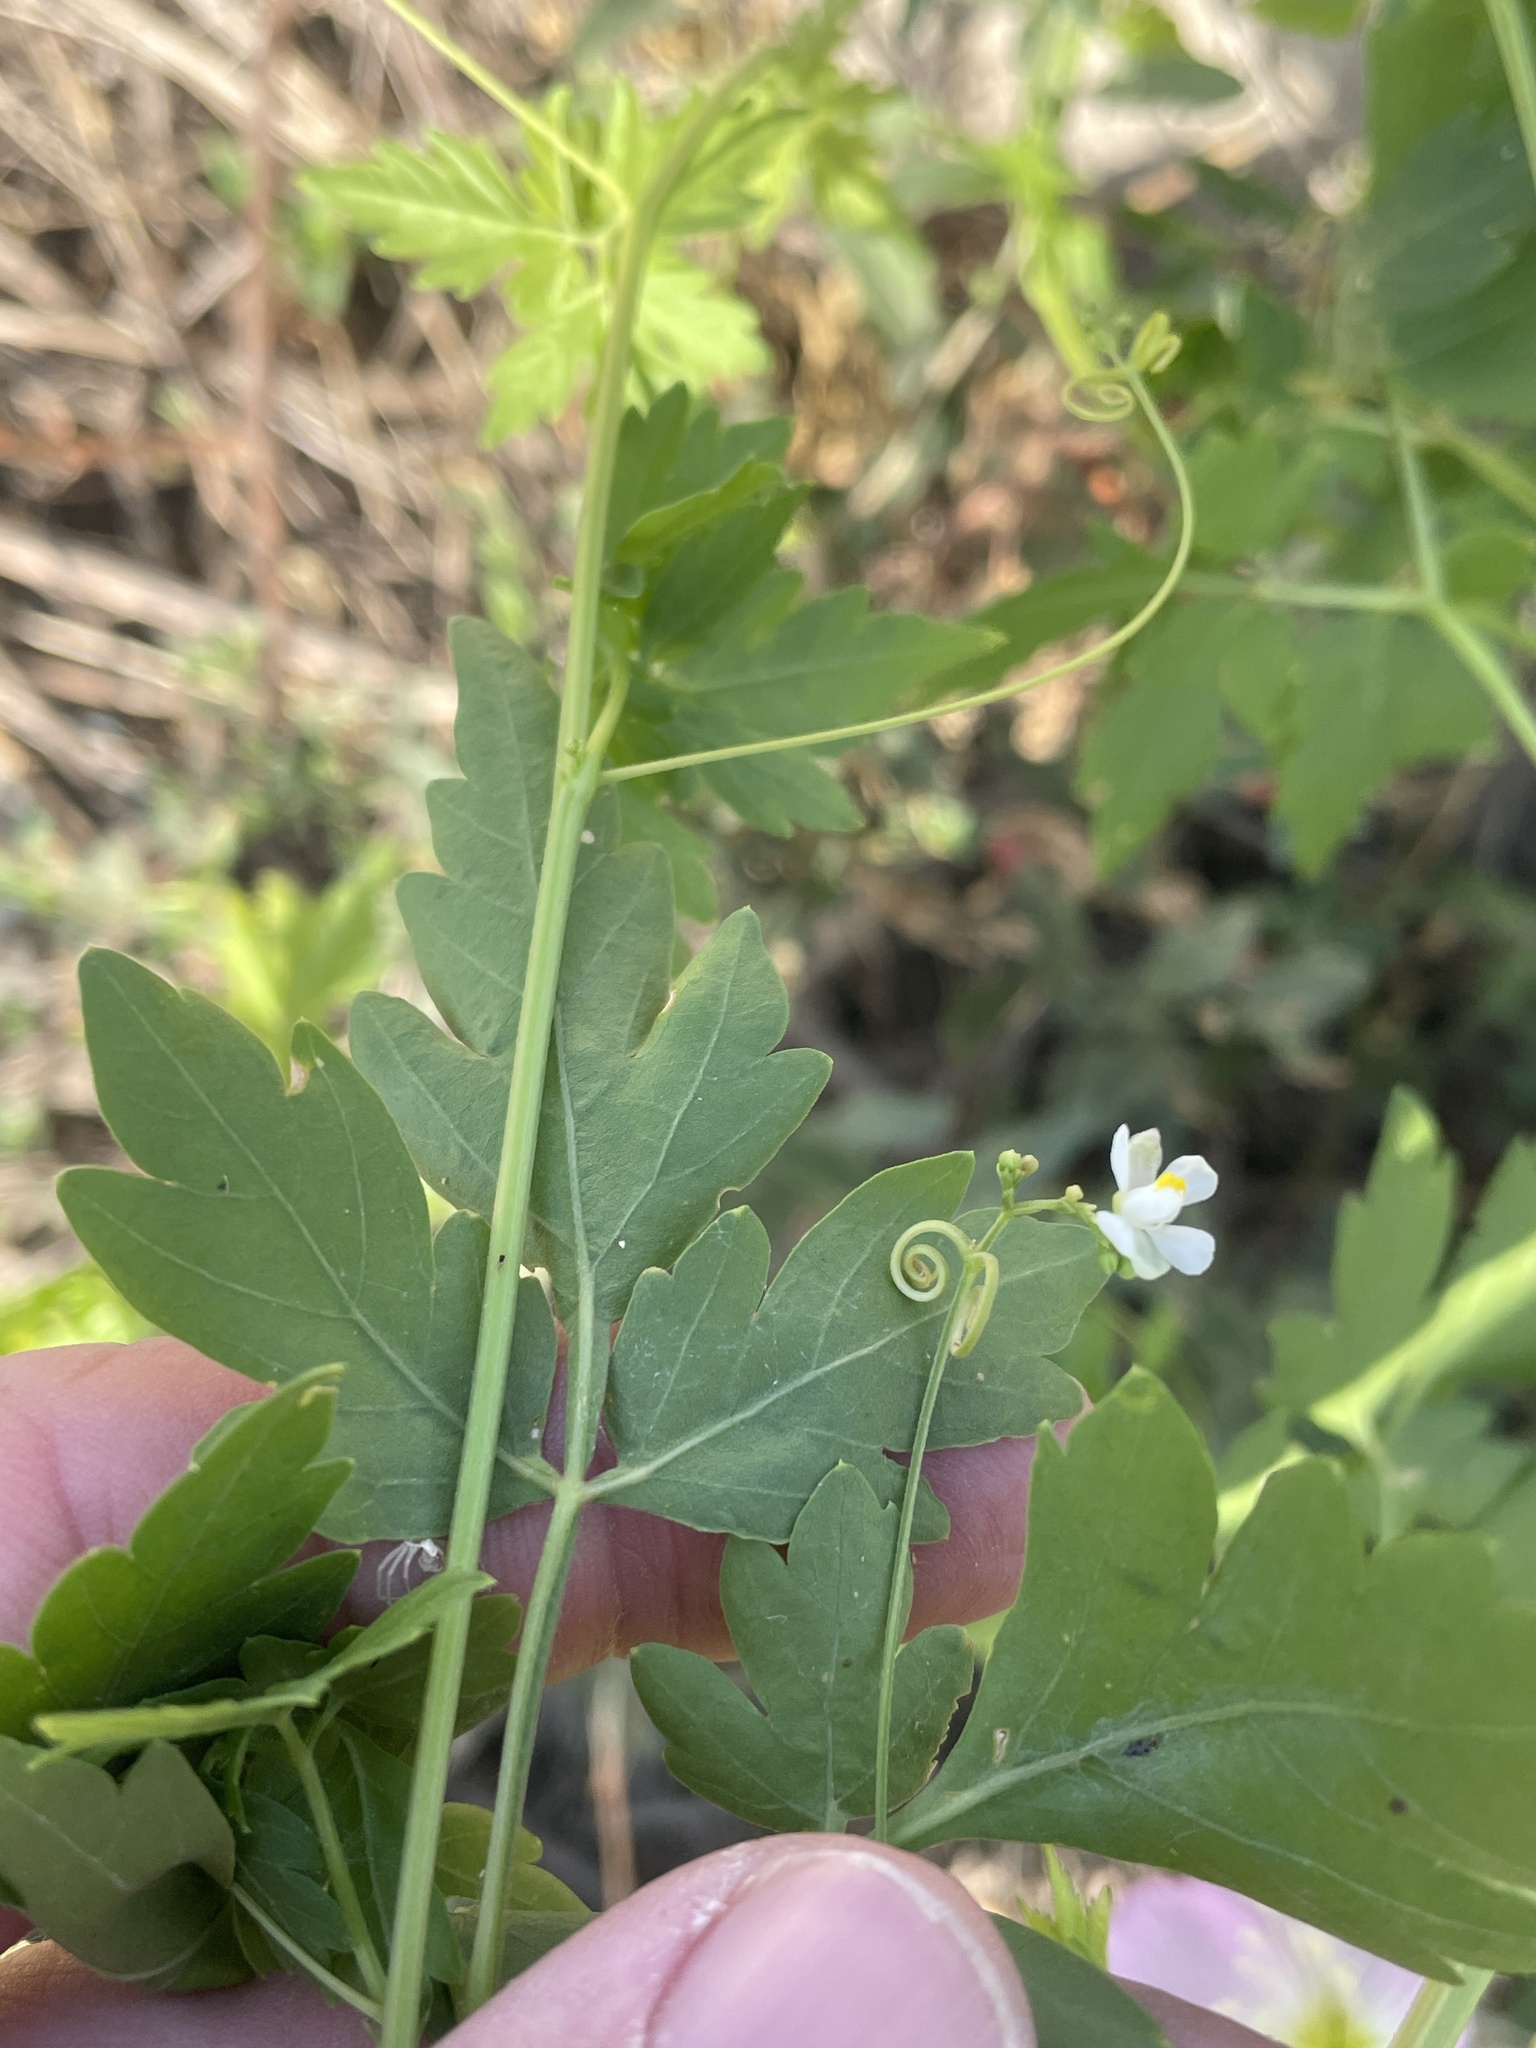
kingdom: Plantae
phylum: Tracheophyta
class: Magnoliopsida
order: Sapindales
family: Sapindaceae
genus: Cardiospermum
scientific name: Cardiospermum halicacabum
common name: Balloon vine
